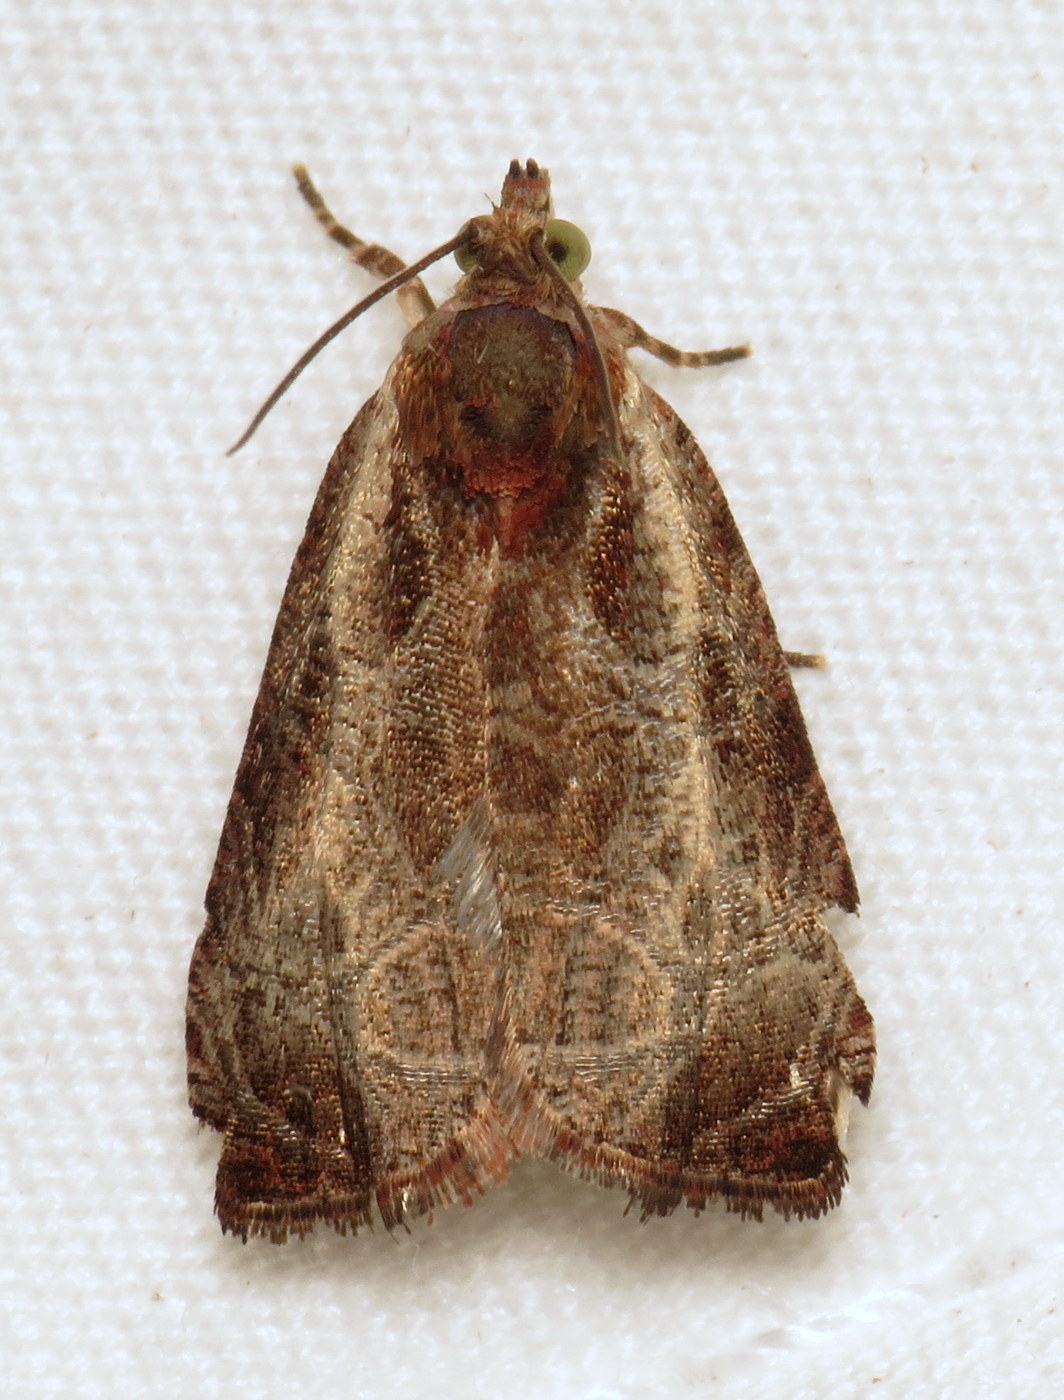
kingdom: Animalia
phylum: Arthropoda
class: Insecta
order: Lepidoptera
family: Tortricidae
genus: Olethreutes
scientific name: Olethreutes inornatana
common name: Inornate olethreutes moth
